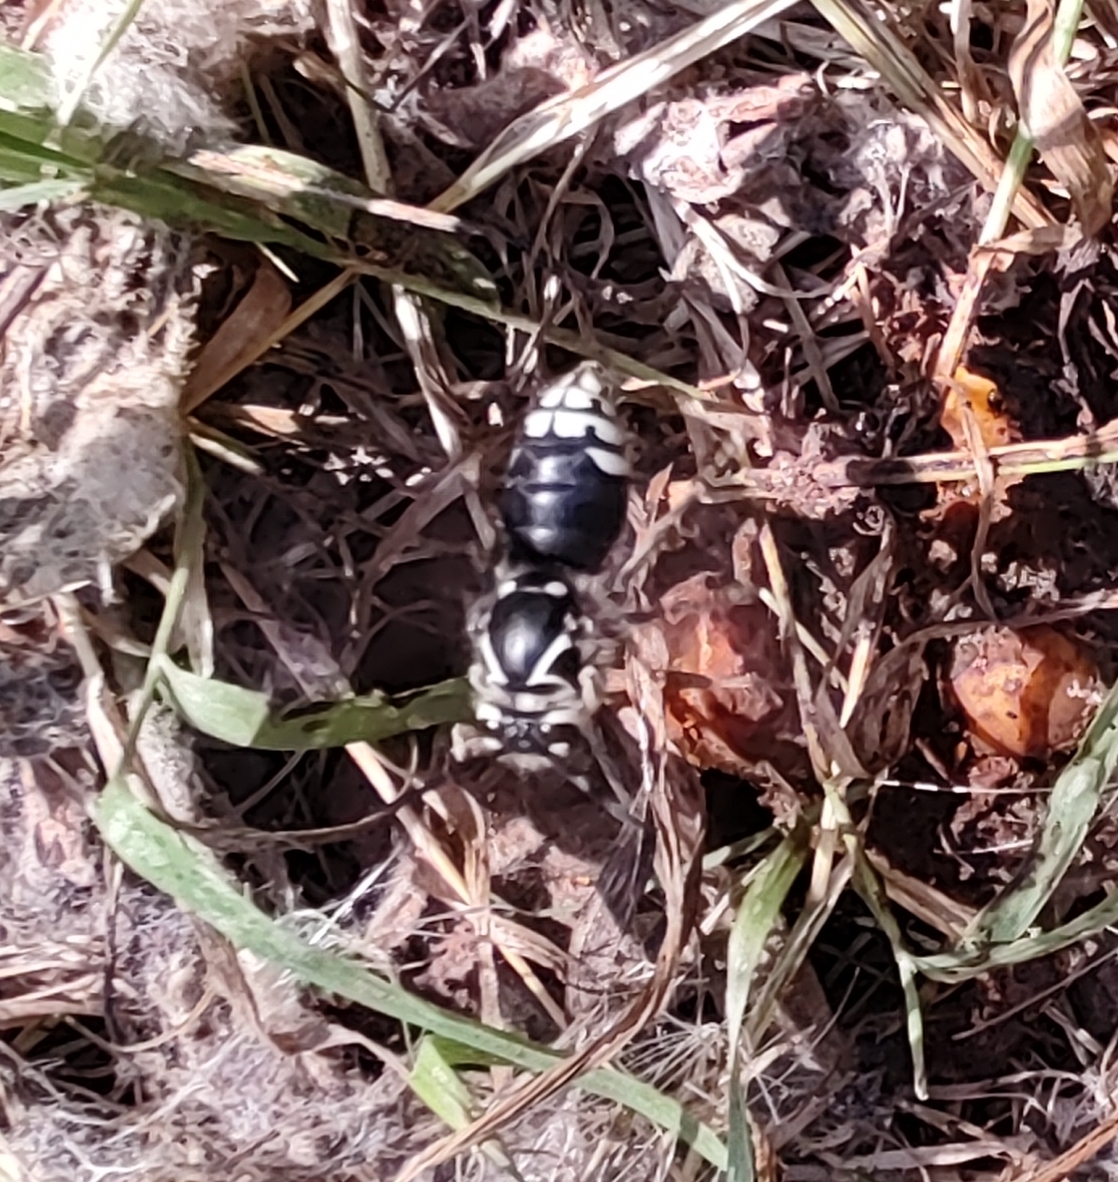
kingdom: Animalia
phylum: Arthropoda
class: Insecta
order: Hymenoptera
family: Vespidae
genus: Dolichovespula
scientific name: Dolichovespula maculata
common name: Bald-faced hornet
